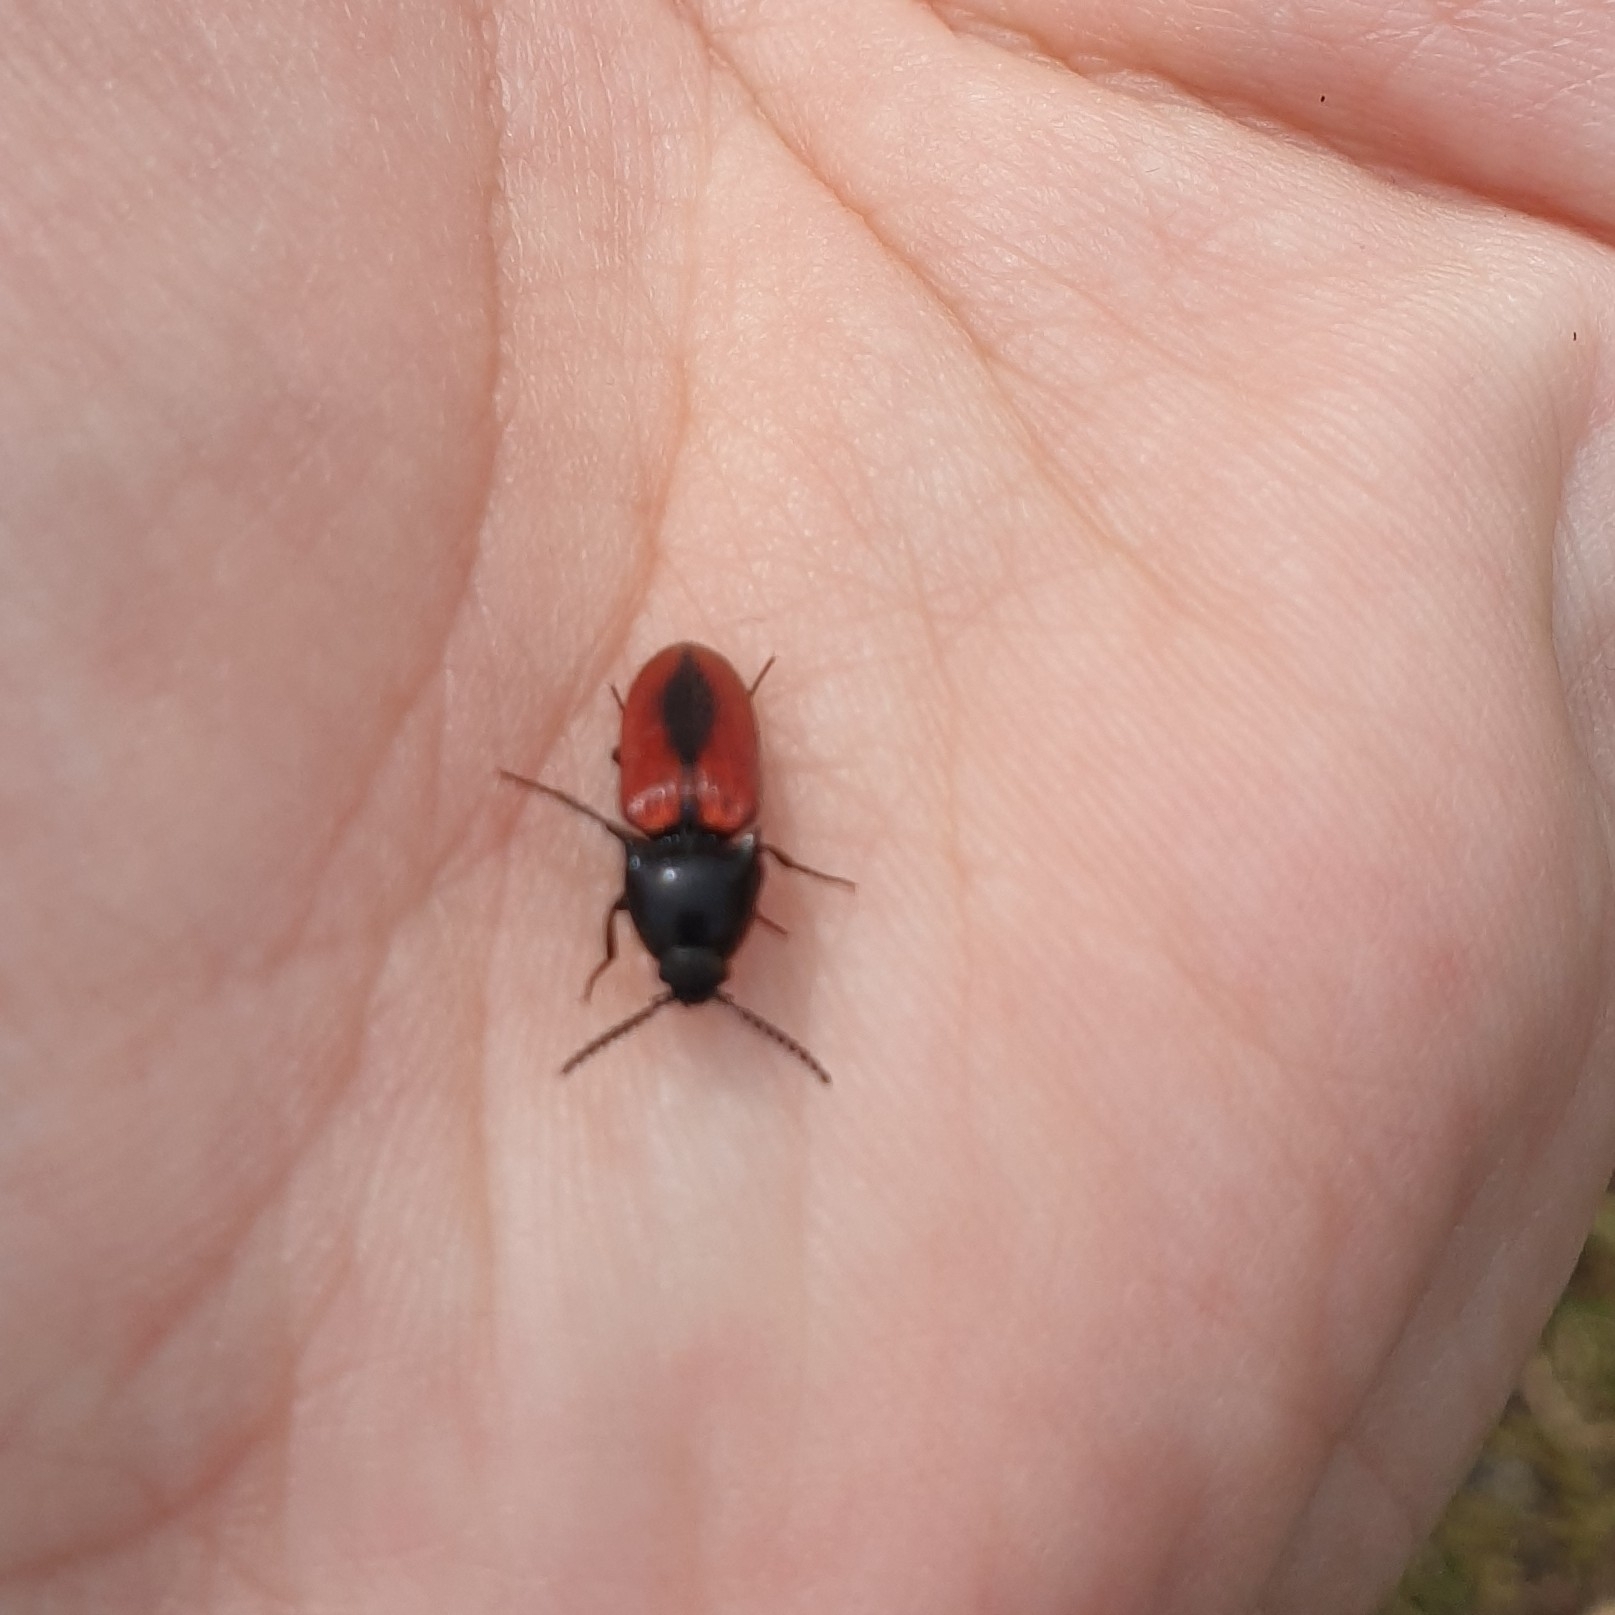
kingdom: Animalia
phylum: Arthropoda
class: Insecta
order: Coleoptera
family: Elateridae
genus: Ampedus
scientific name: Ampedus sanguinolentus
